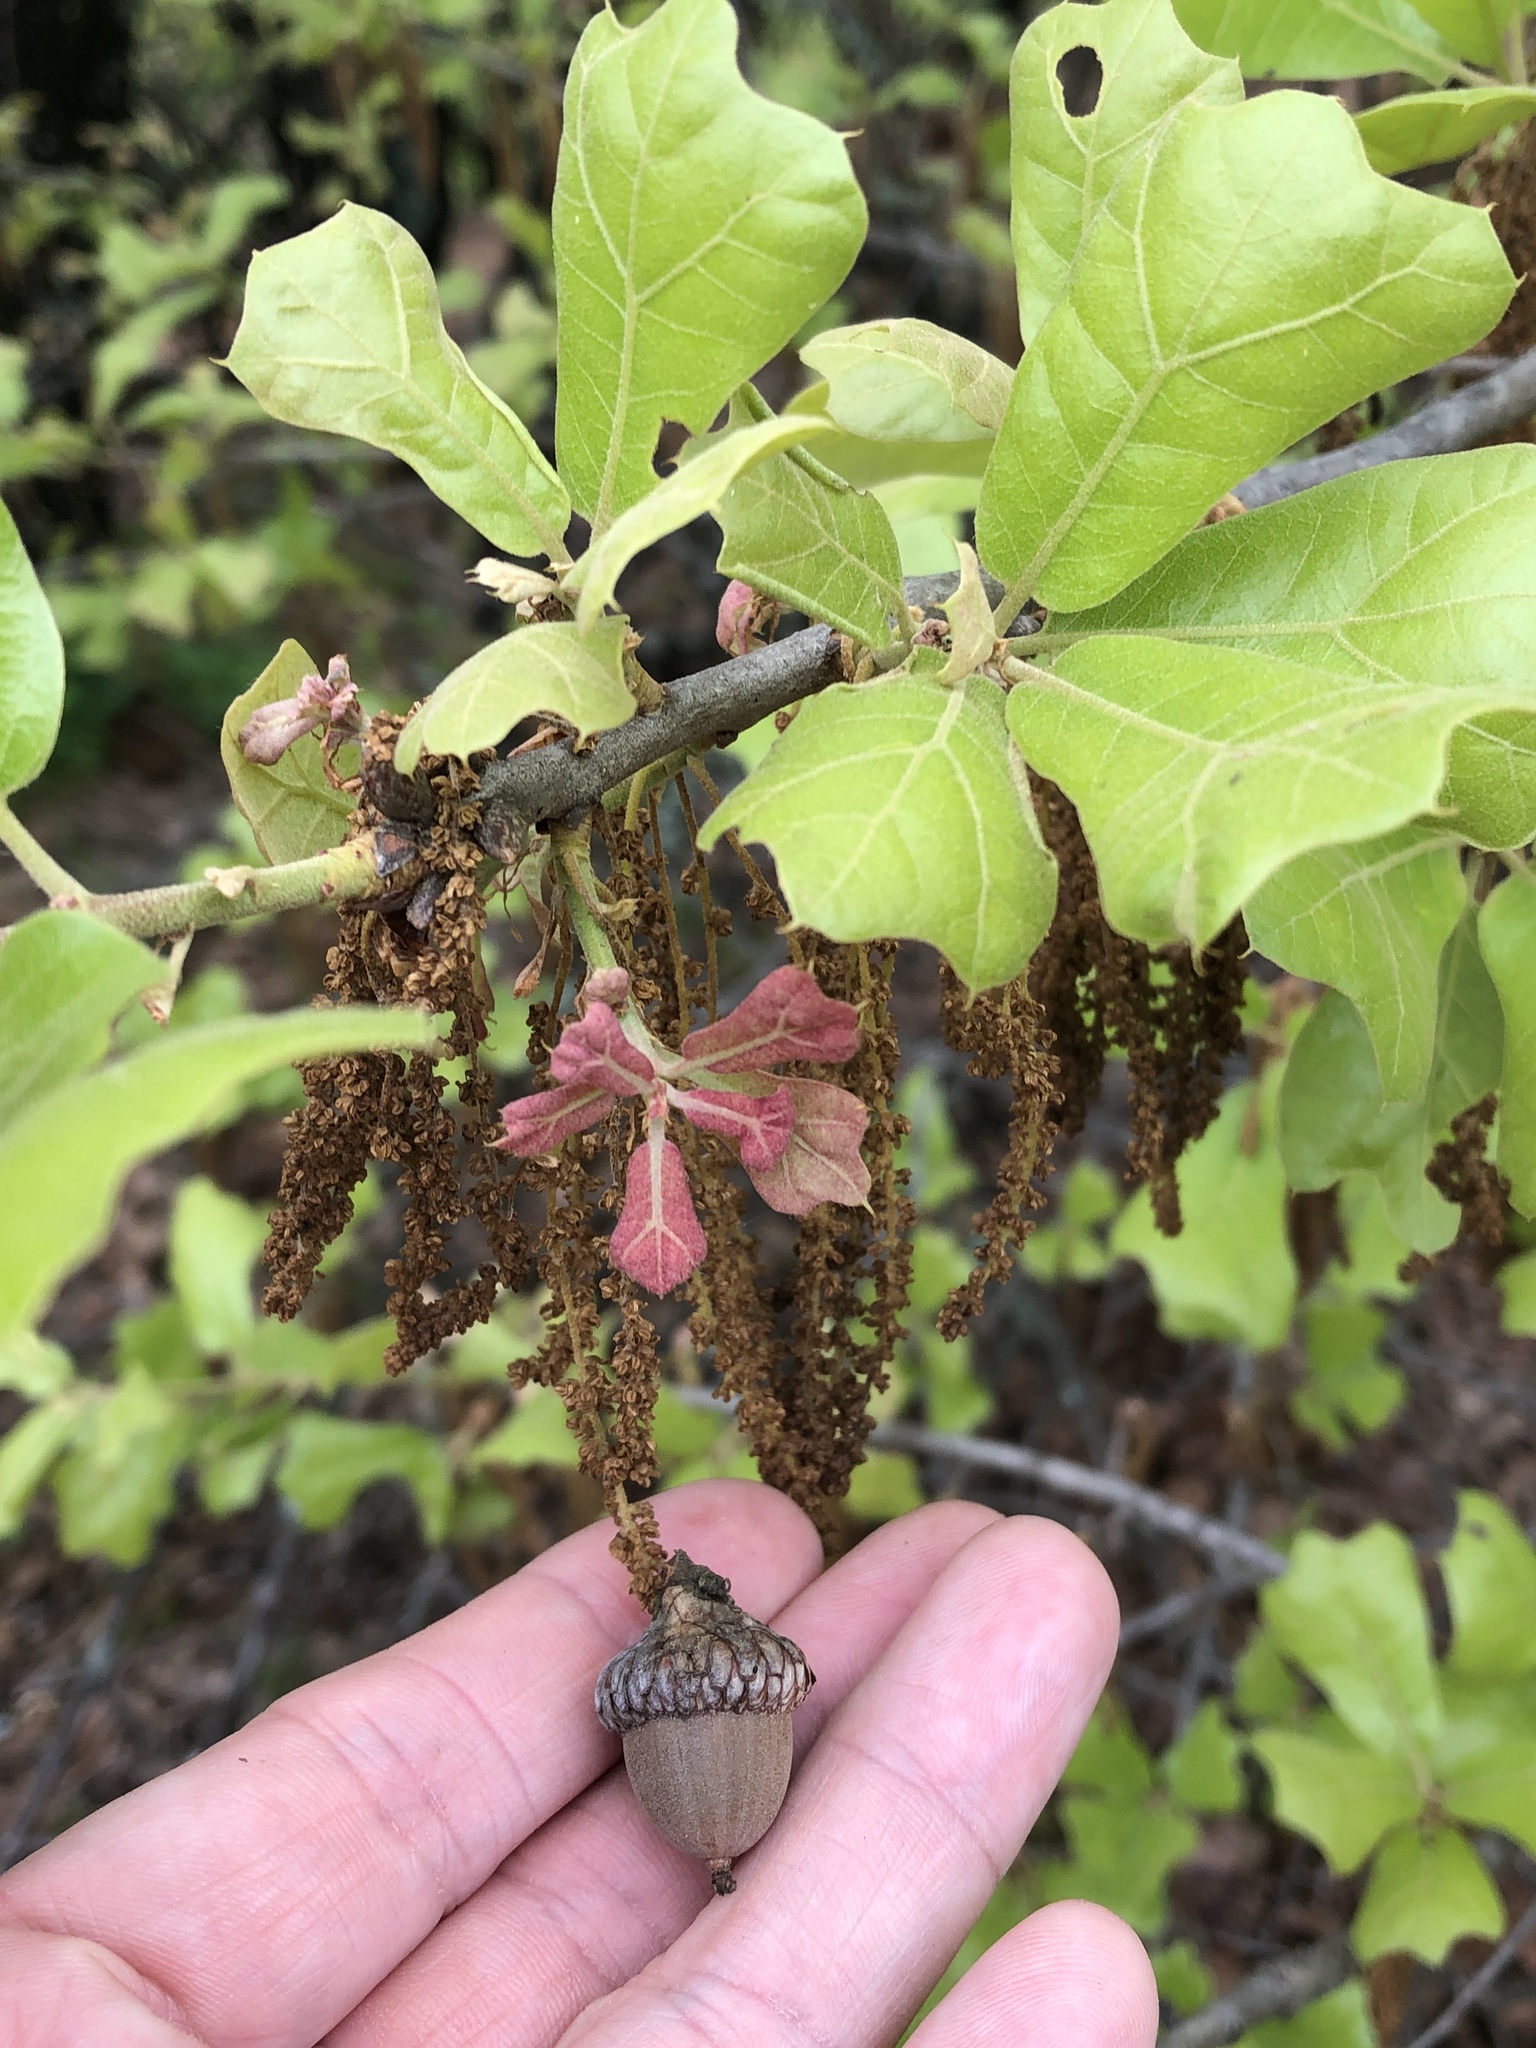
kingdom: Plantae
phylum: Tracheophyta
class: Magnoliopsida
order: Fagales
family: Fagaceae
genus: Quercus
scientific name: Quercus marilandica
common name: Blackjack oak
